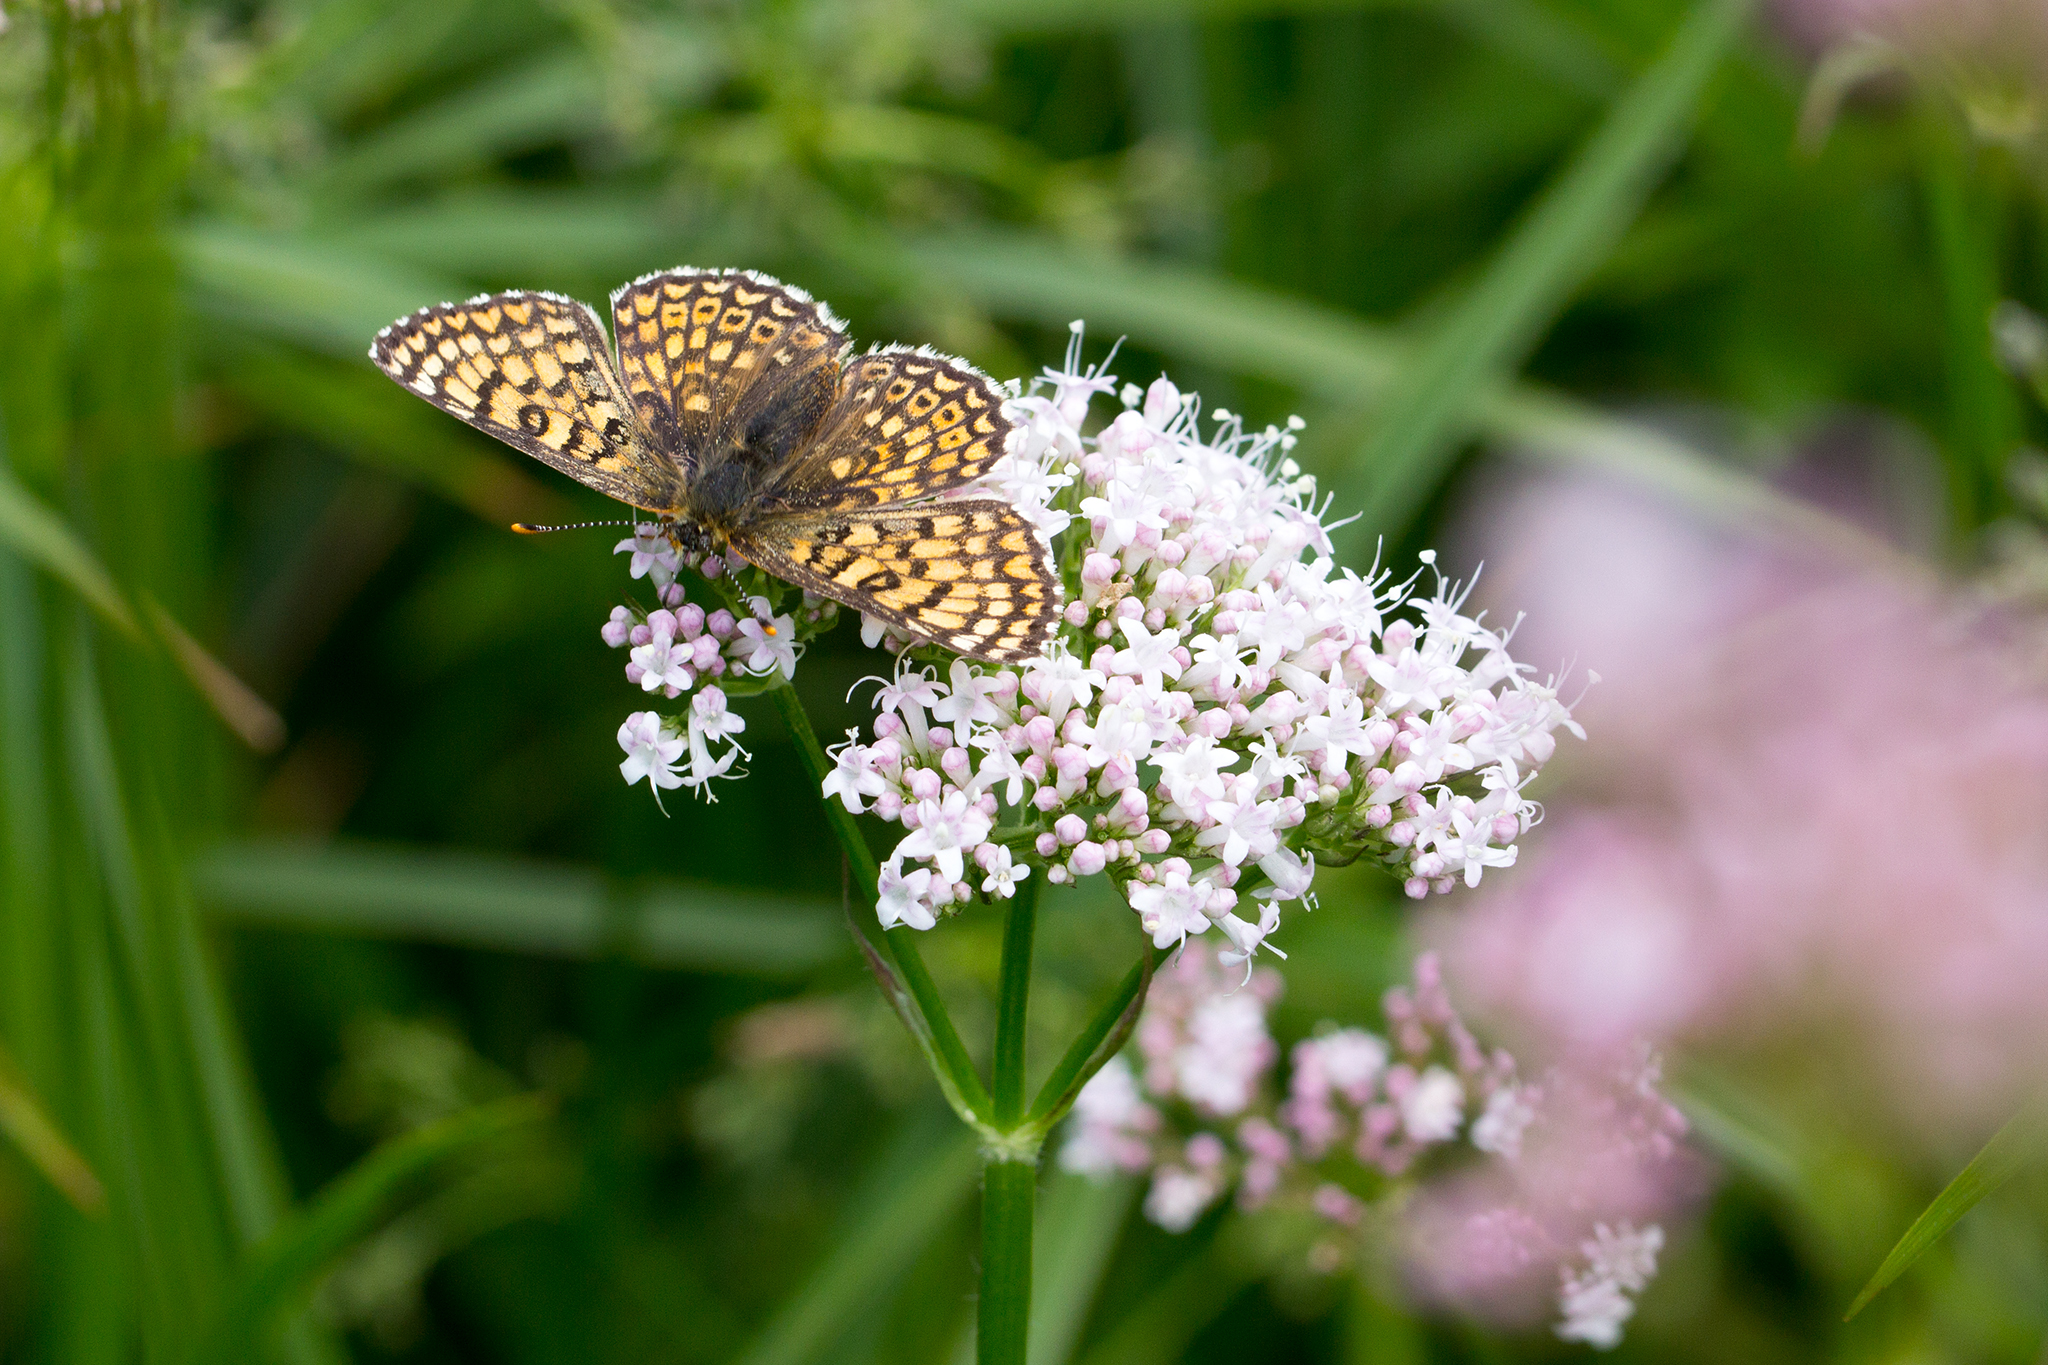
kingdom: Animalia
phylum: Arthropoda
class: Insecta
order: Lepidoptera
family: Nymphalidae
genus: Melitaea
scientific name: Melitaea cinxia
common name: Glanville fritillary
